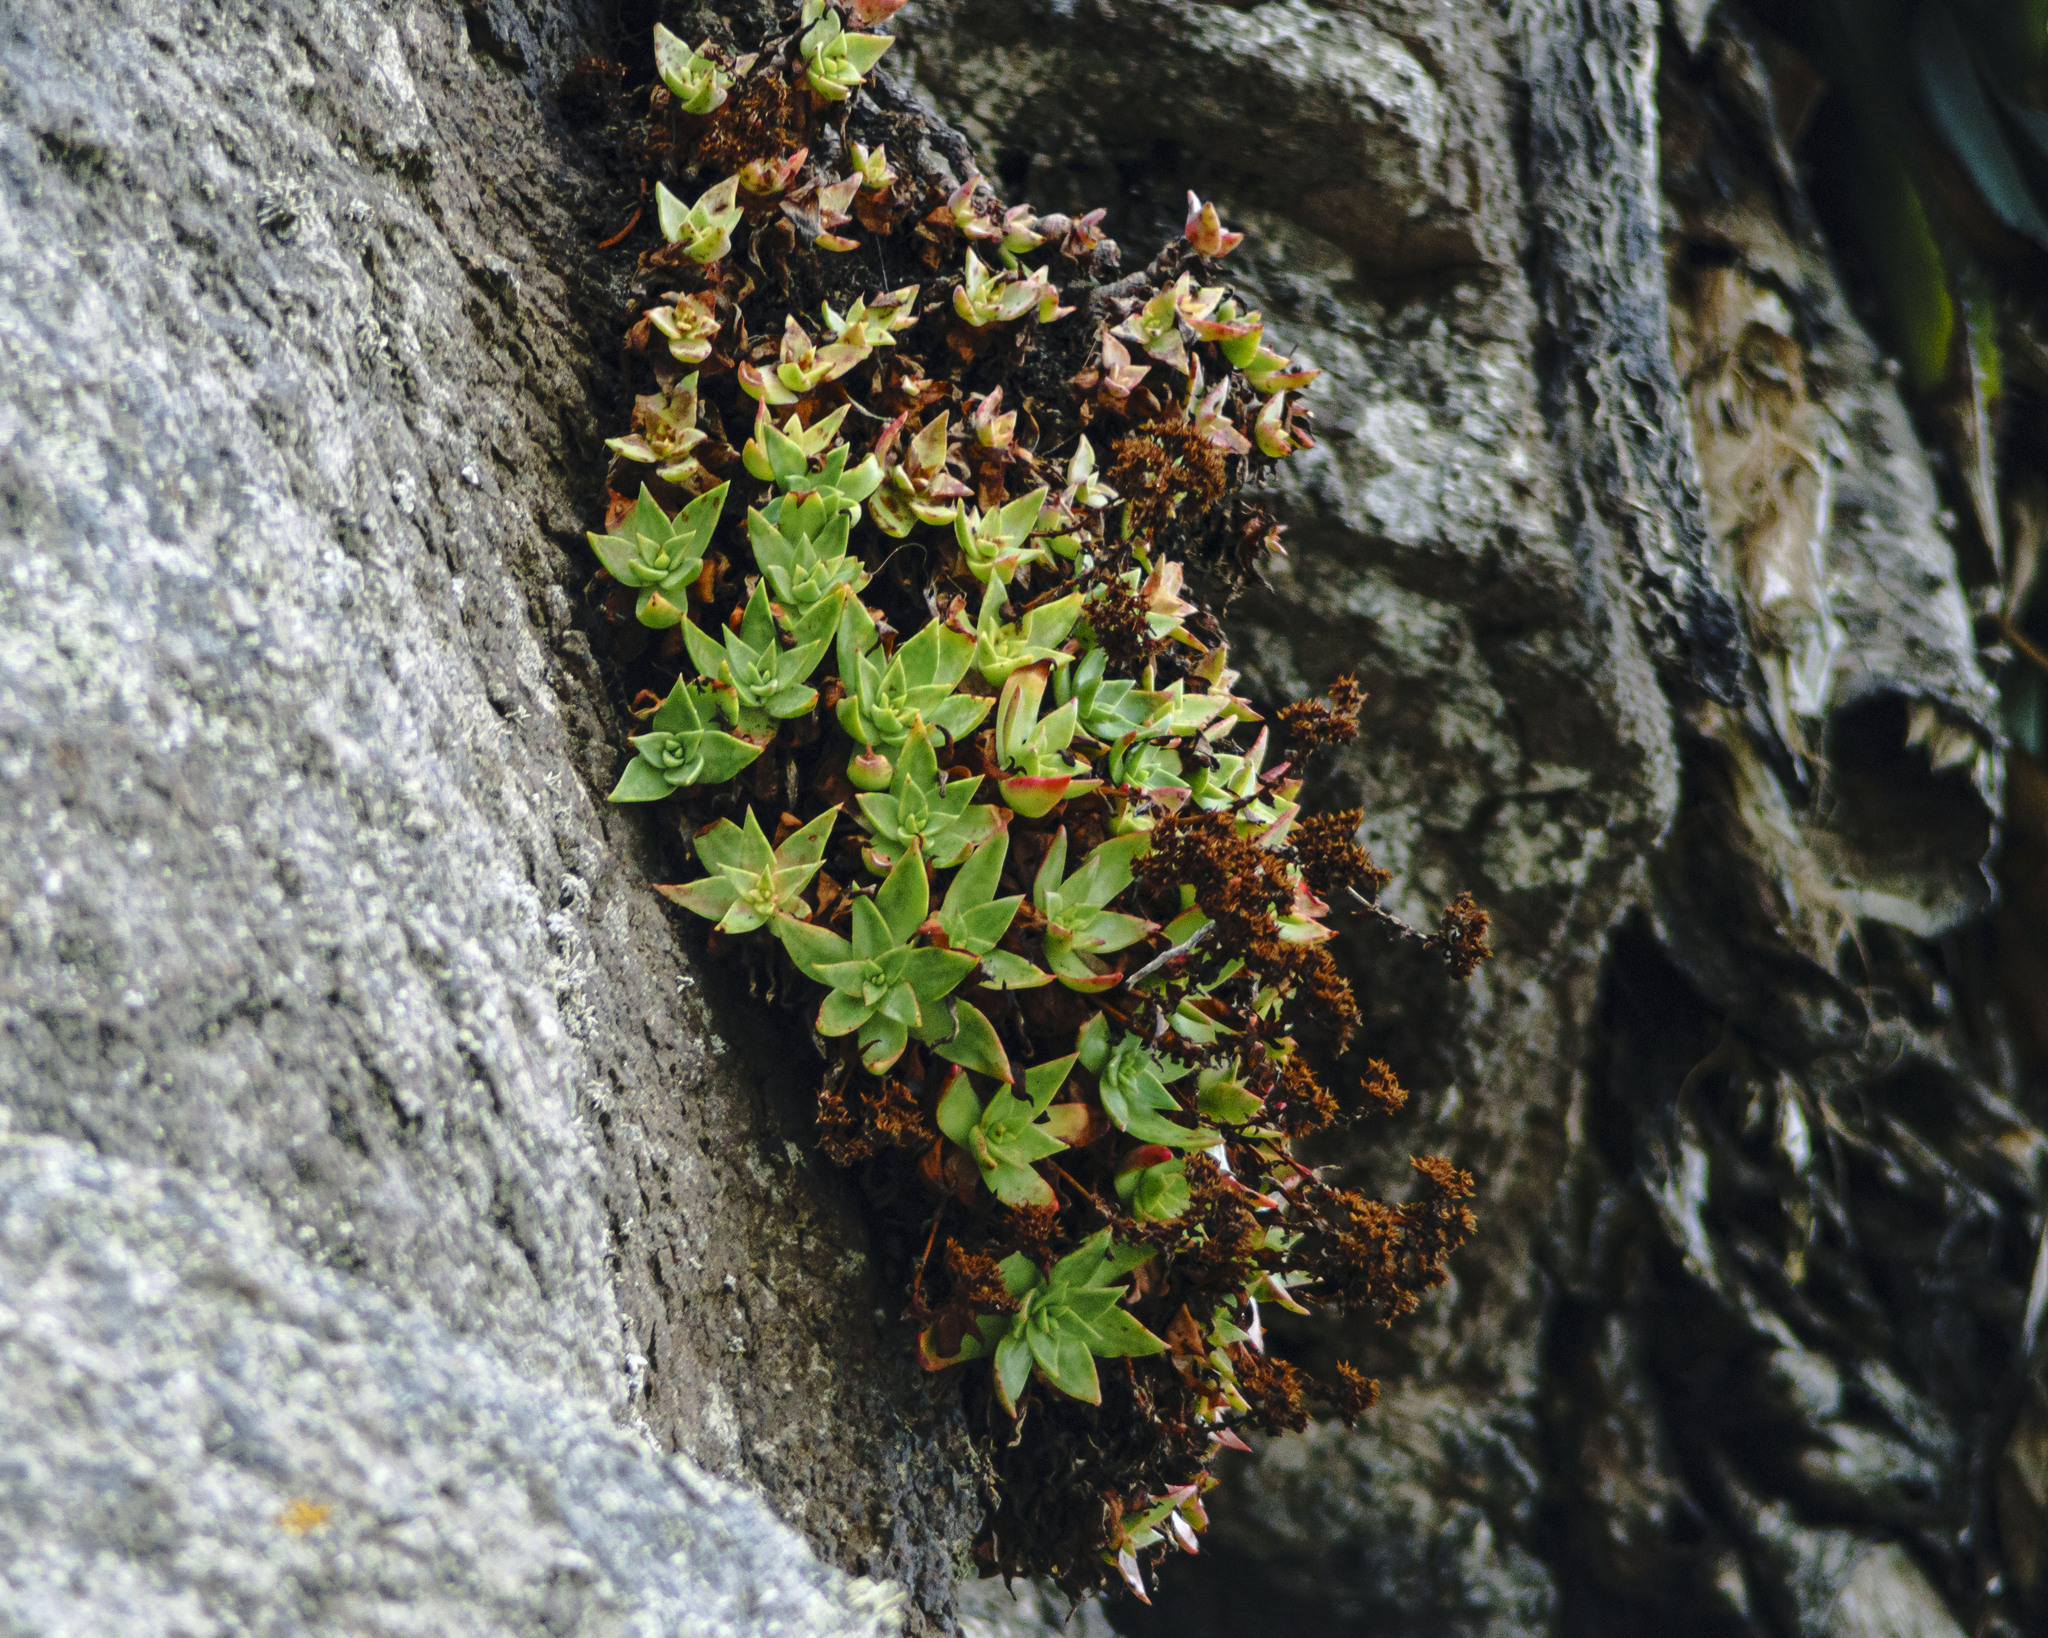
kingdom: Plantae
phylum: Tracheophyta
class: Magnoliopsida
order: Saxifragales
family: Crassulaceae
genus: Dudleya
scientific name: Dudleya formosa
